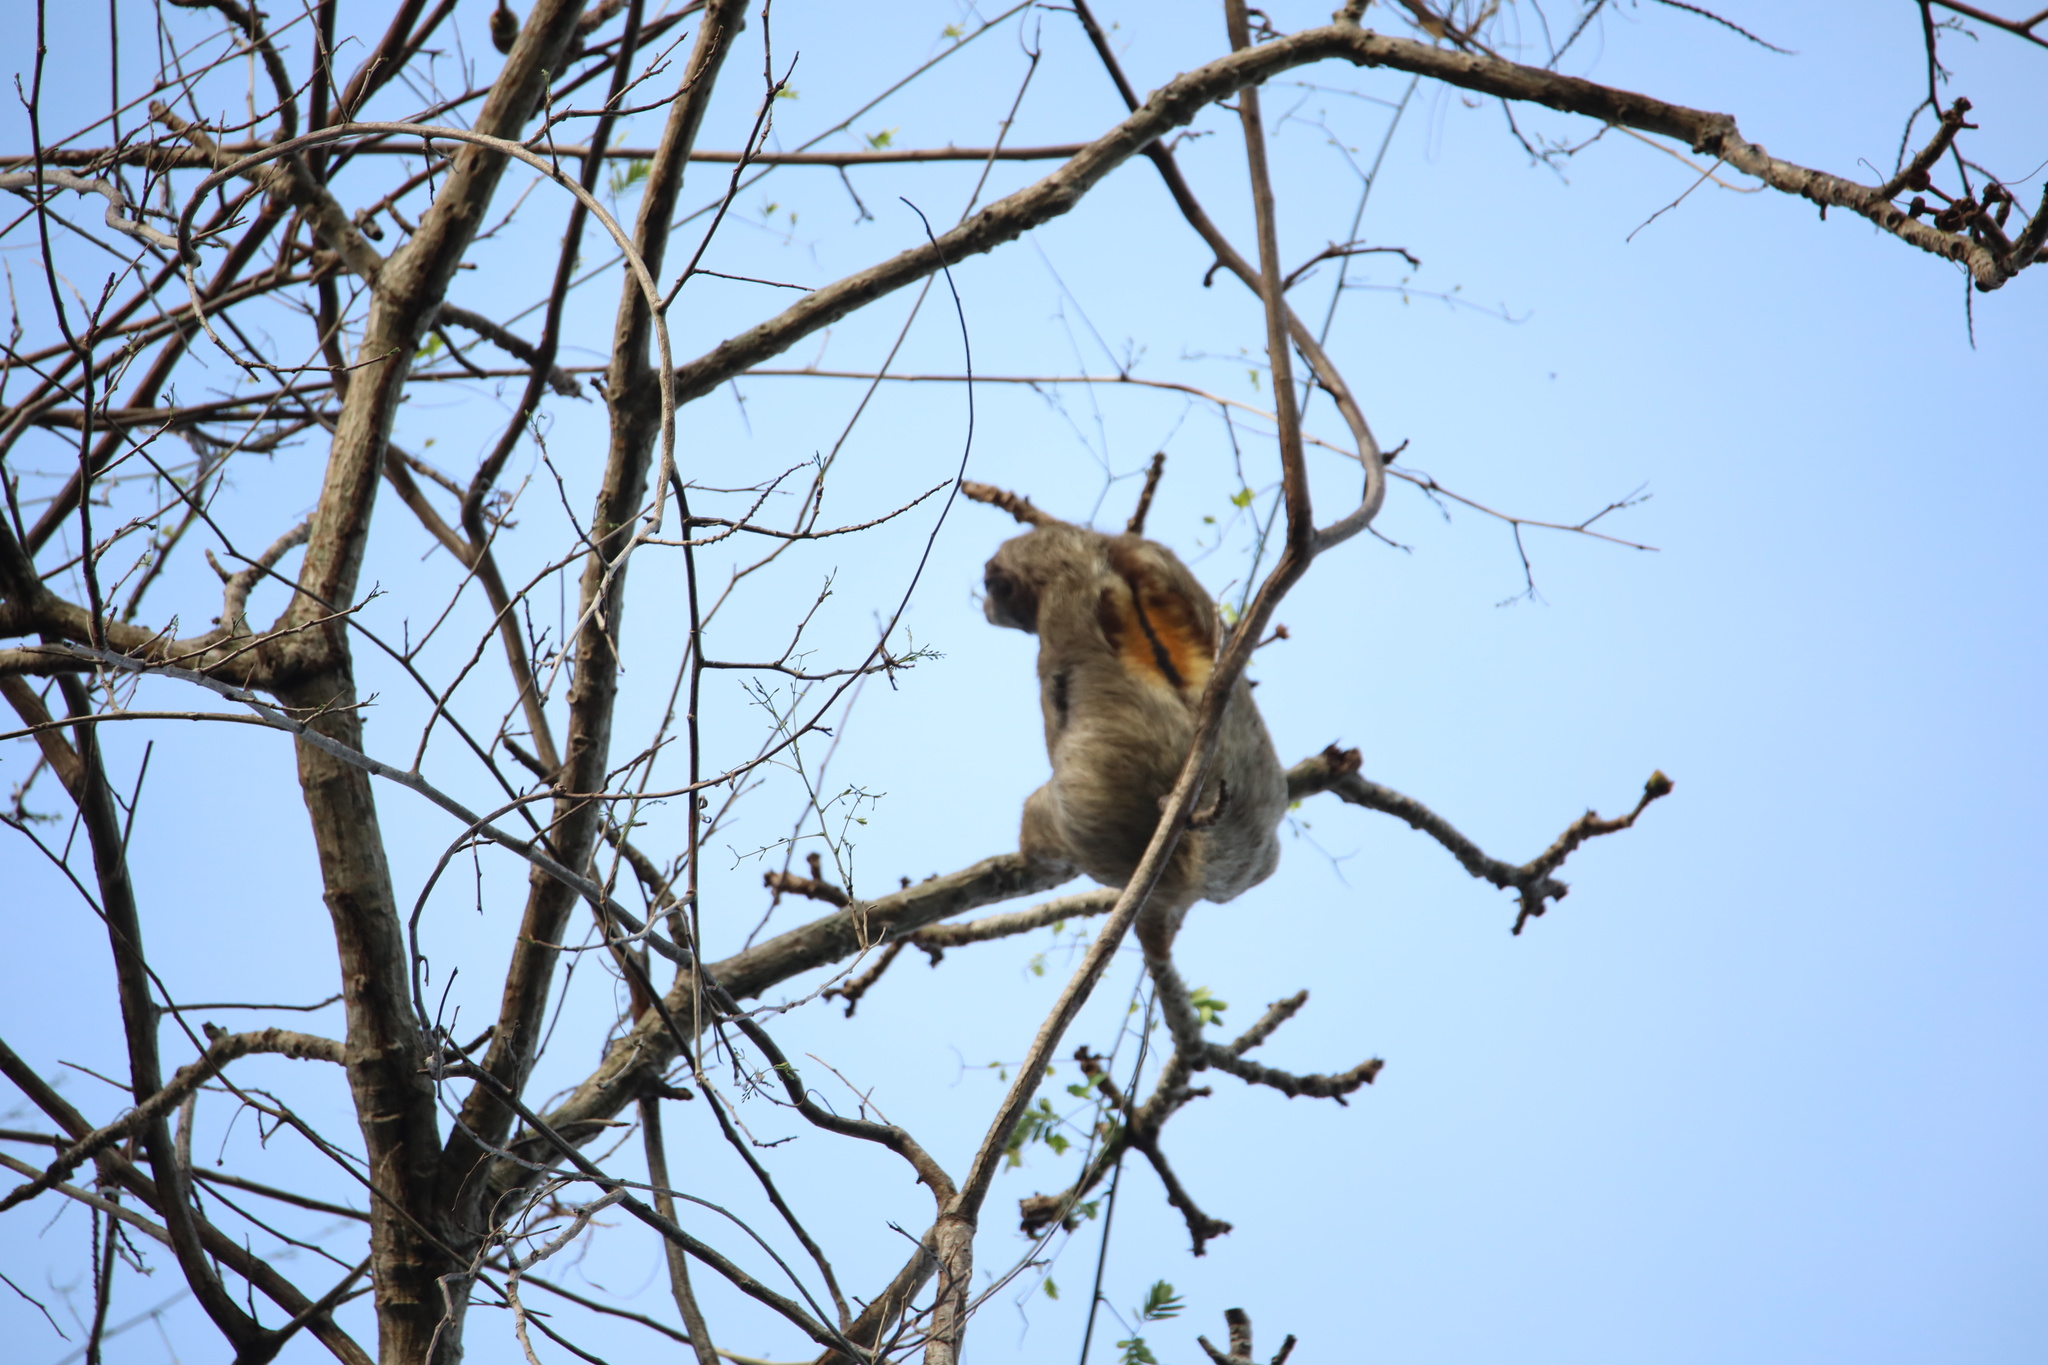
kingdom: Animalia
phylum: Chordata
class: Mammalia
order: Pilosa
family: Bradypodidae
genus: Bradypus
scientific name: Bradypus variegatus
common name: Brown-throated three-toed sloth
